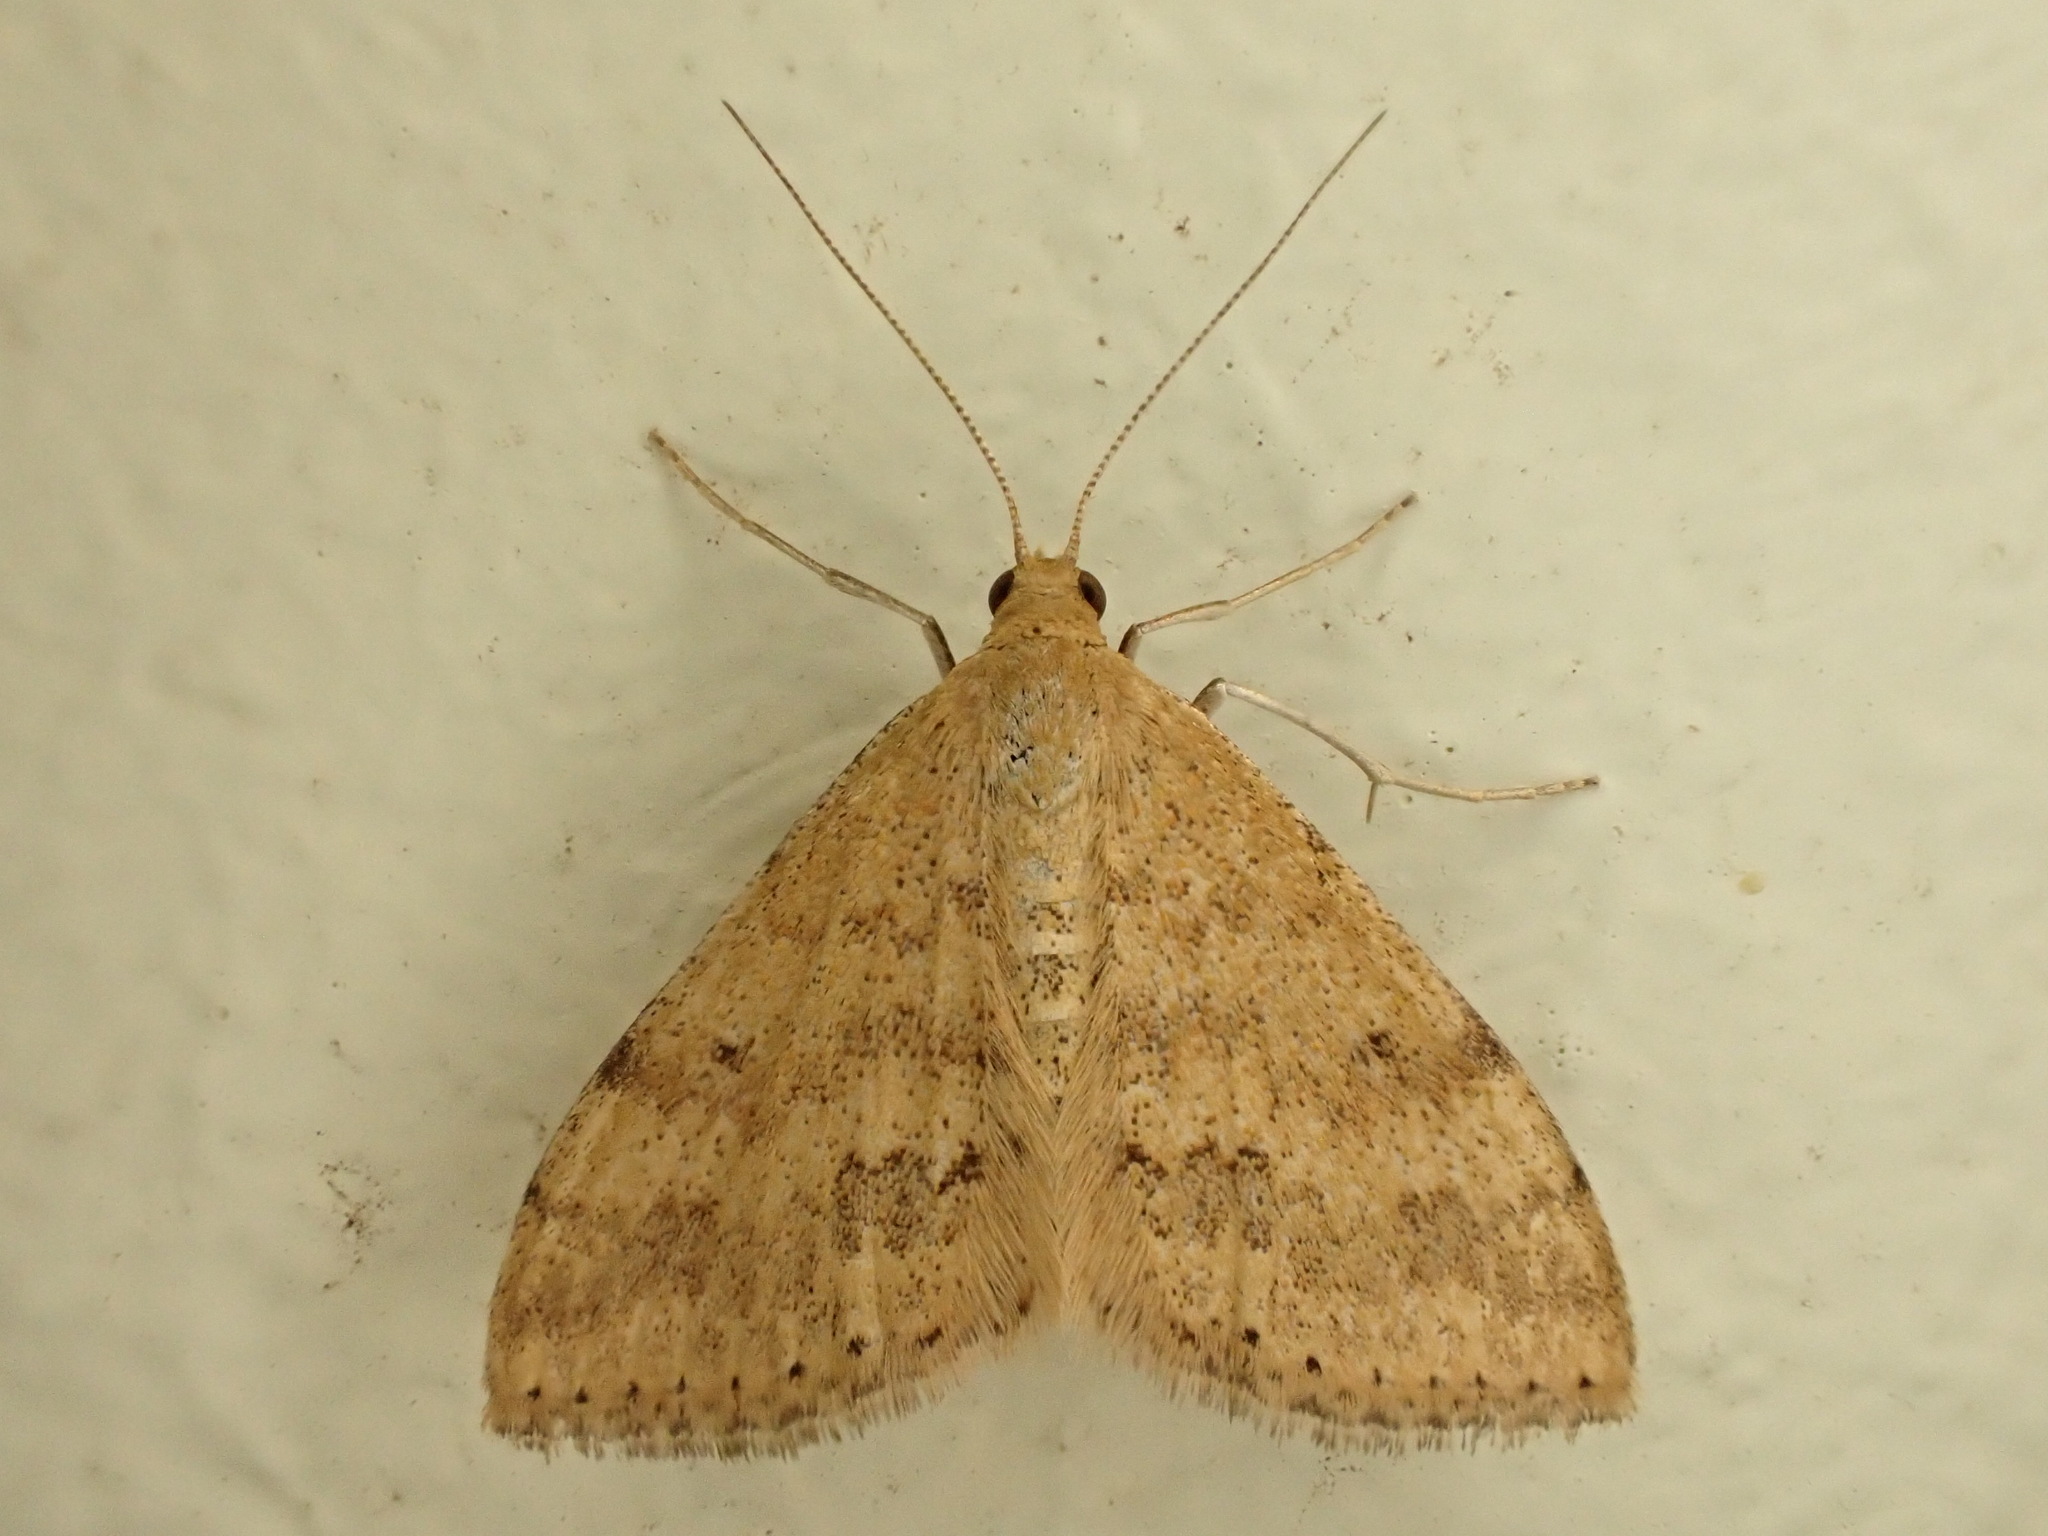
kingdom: Animalia
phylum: Arthropoda
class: Insecta
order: Lepidoptera
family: Geometridae
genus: Scopula
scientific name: Scopula rubraria
